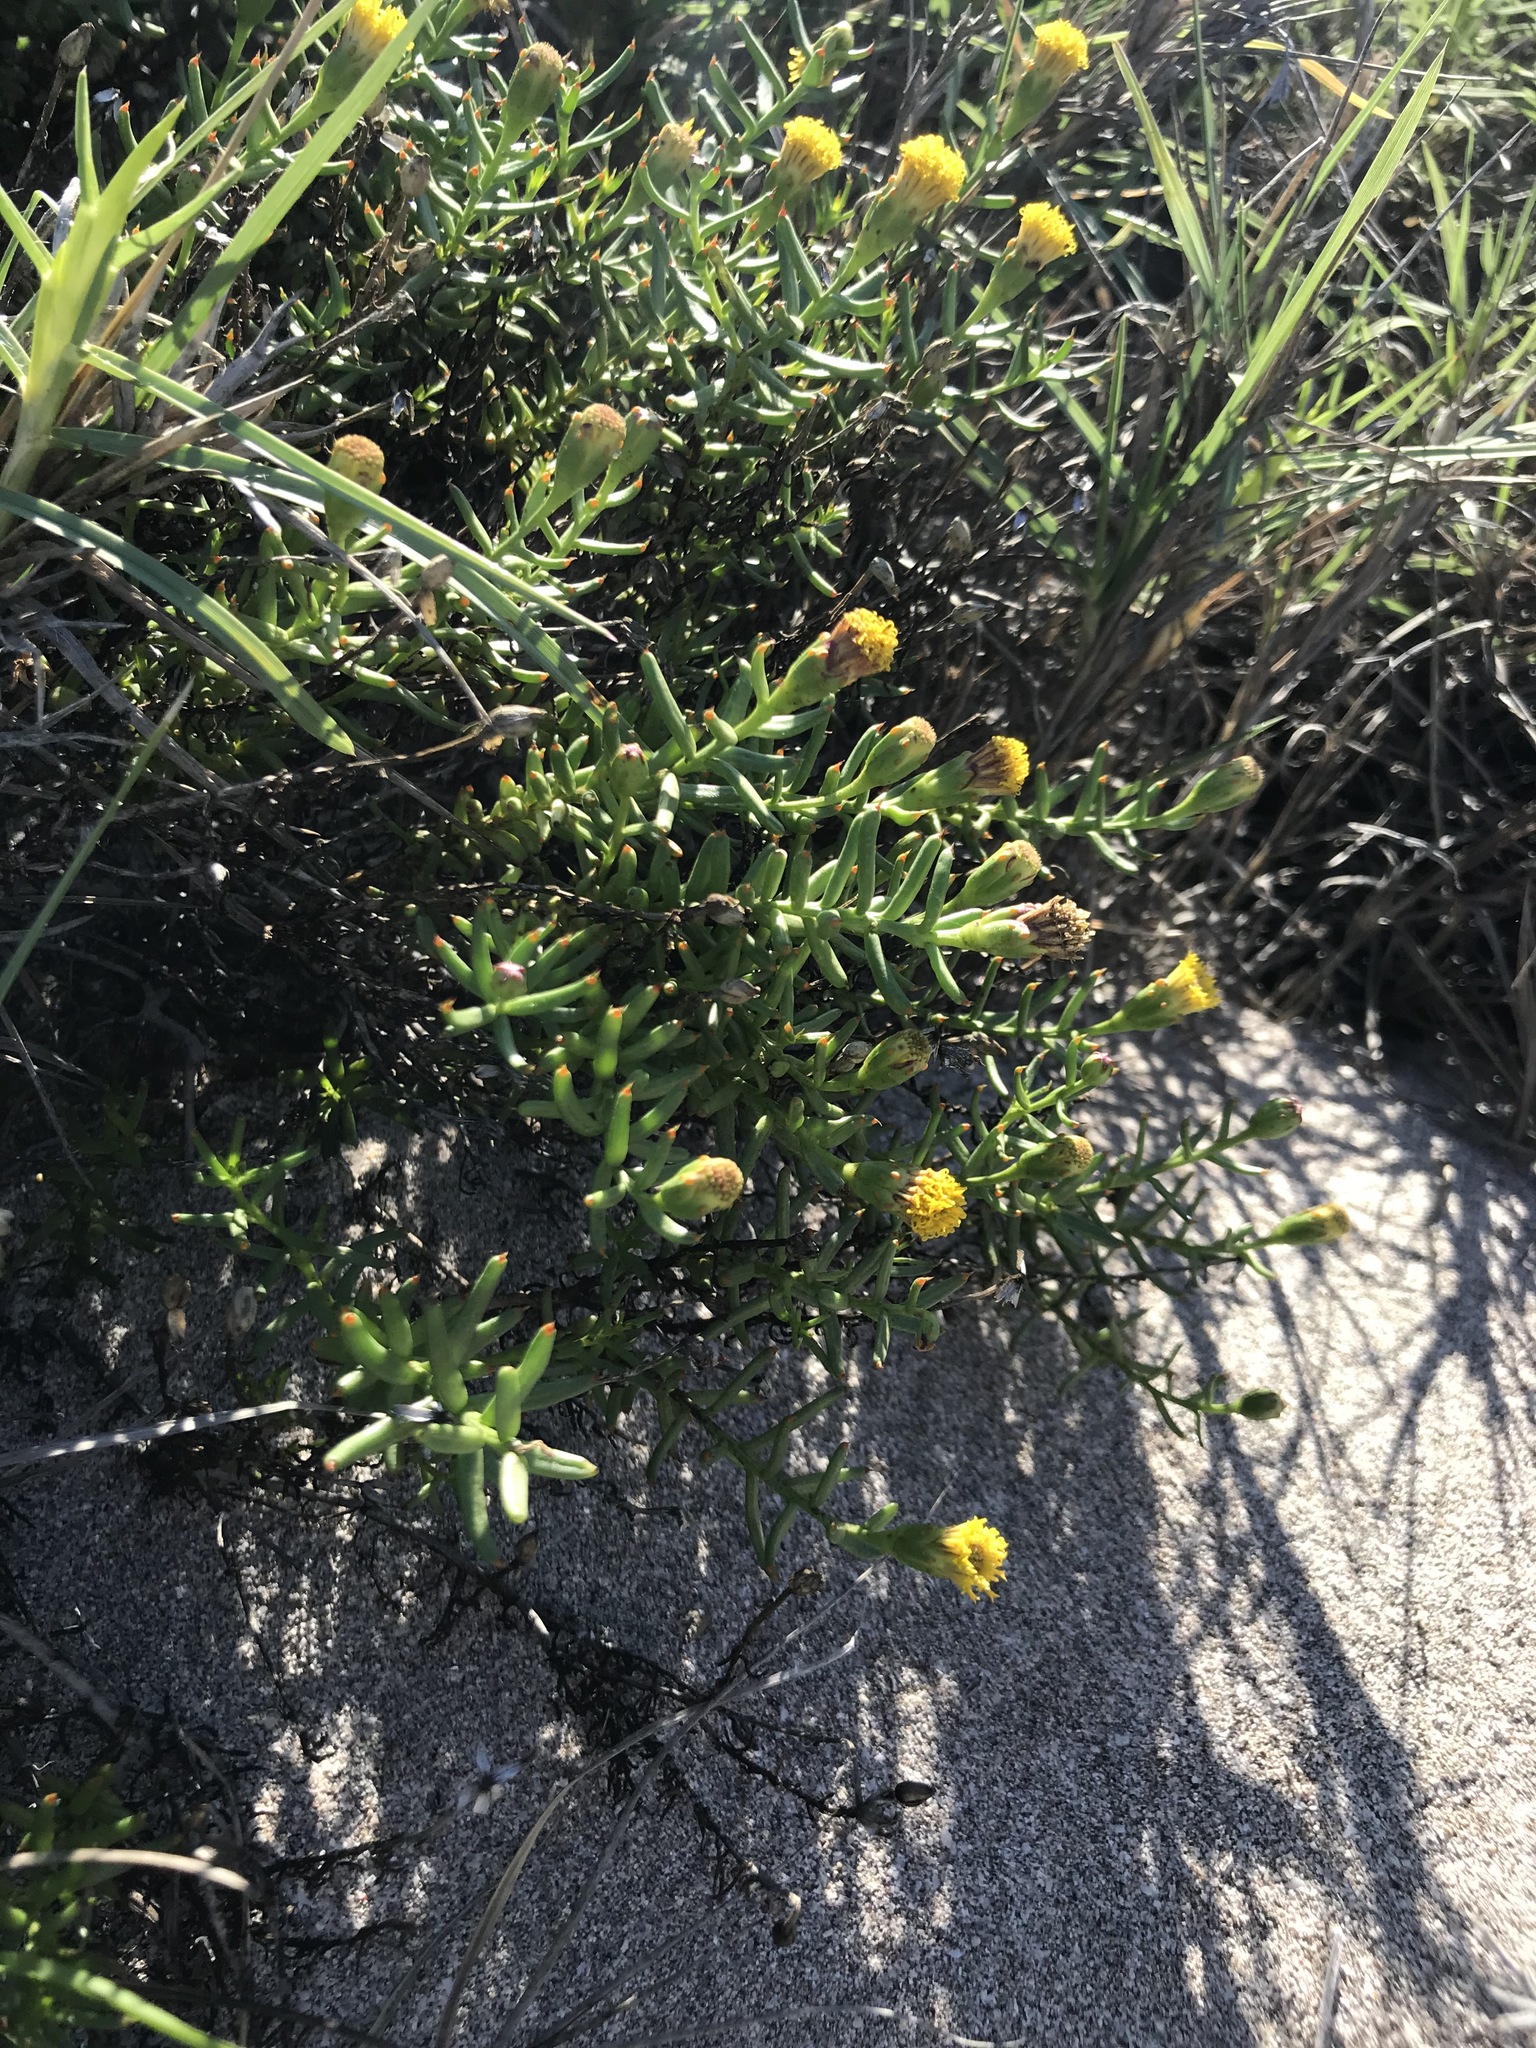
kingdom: Plantae
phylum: Tracheophyta
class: Magnoliopsida
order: Asterales
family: Asteraceae
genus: Bajacalia
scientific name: Bajacalia crassifolia
